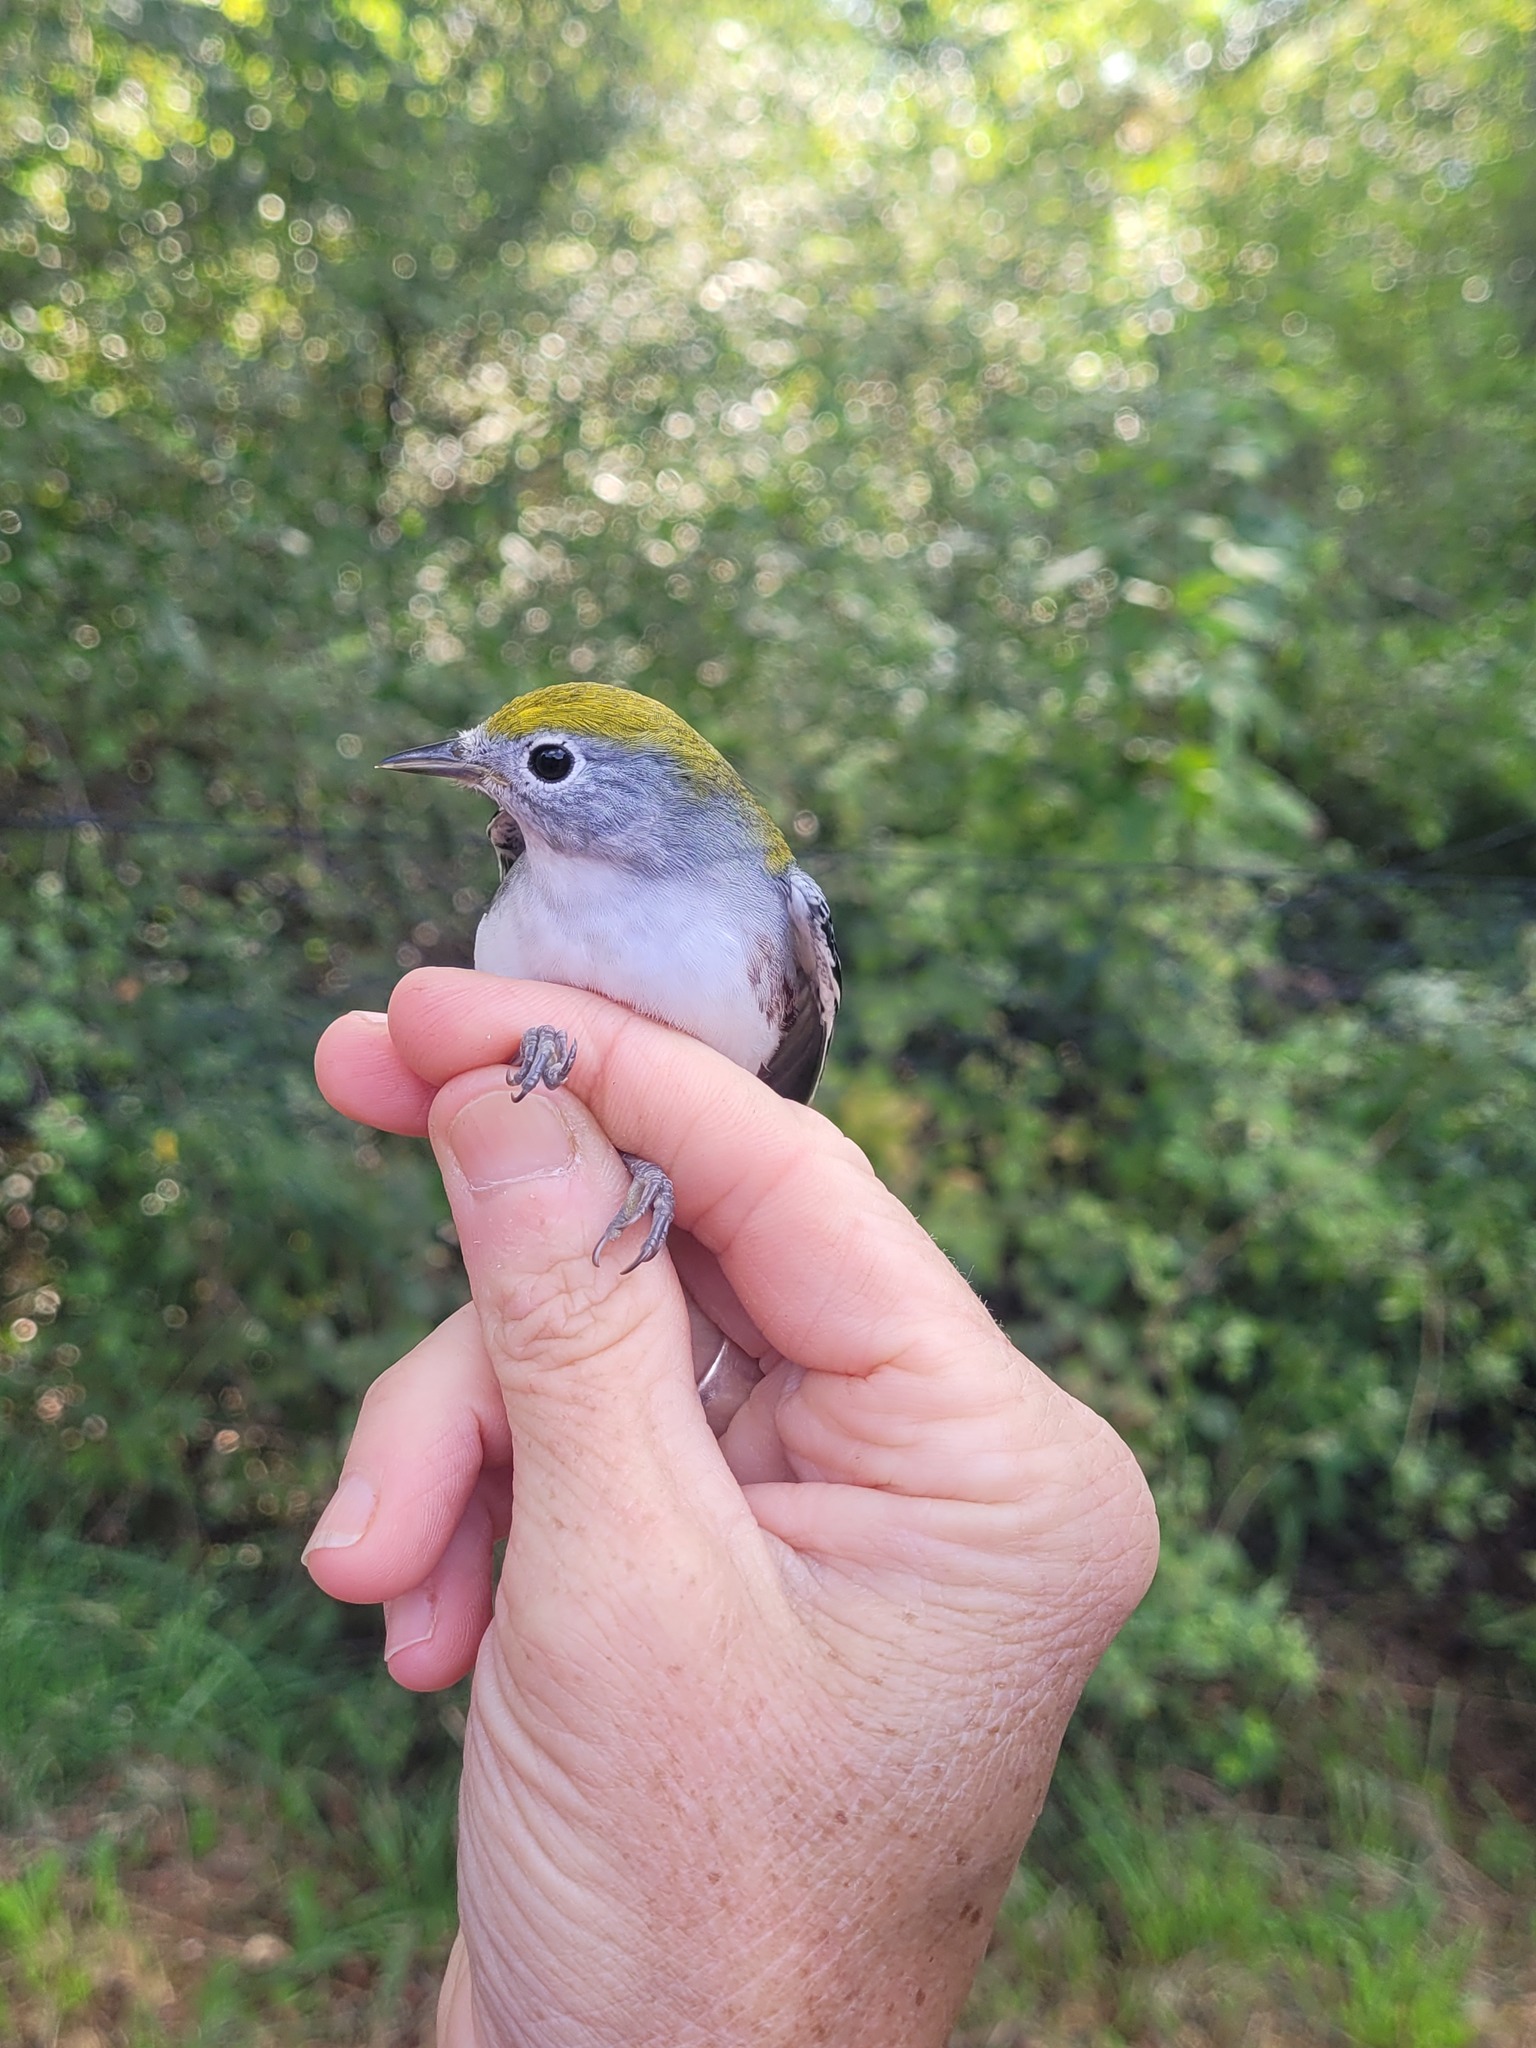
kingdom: Animalia
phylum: Chordata
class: Aves
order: Passeriformes
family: Parulidae
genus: Setophaga
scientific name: Setophaga pensylvanica
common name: Chestnut-sided warbler
